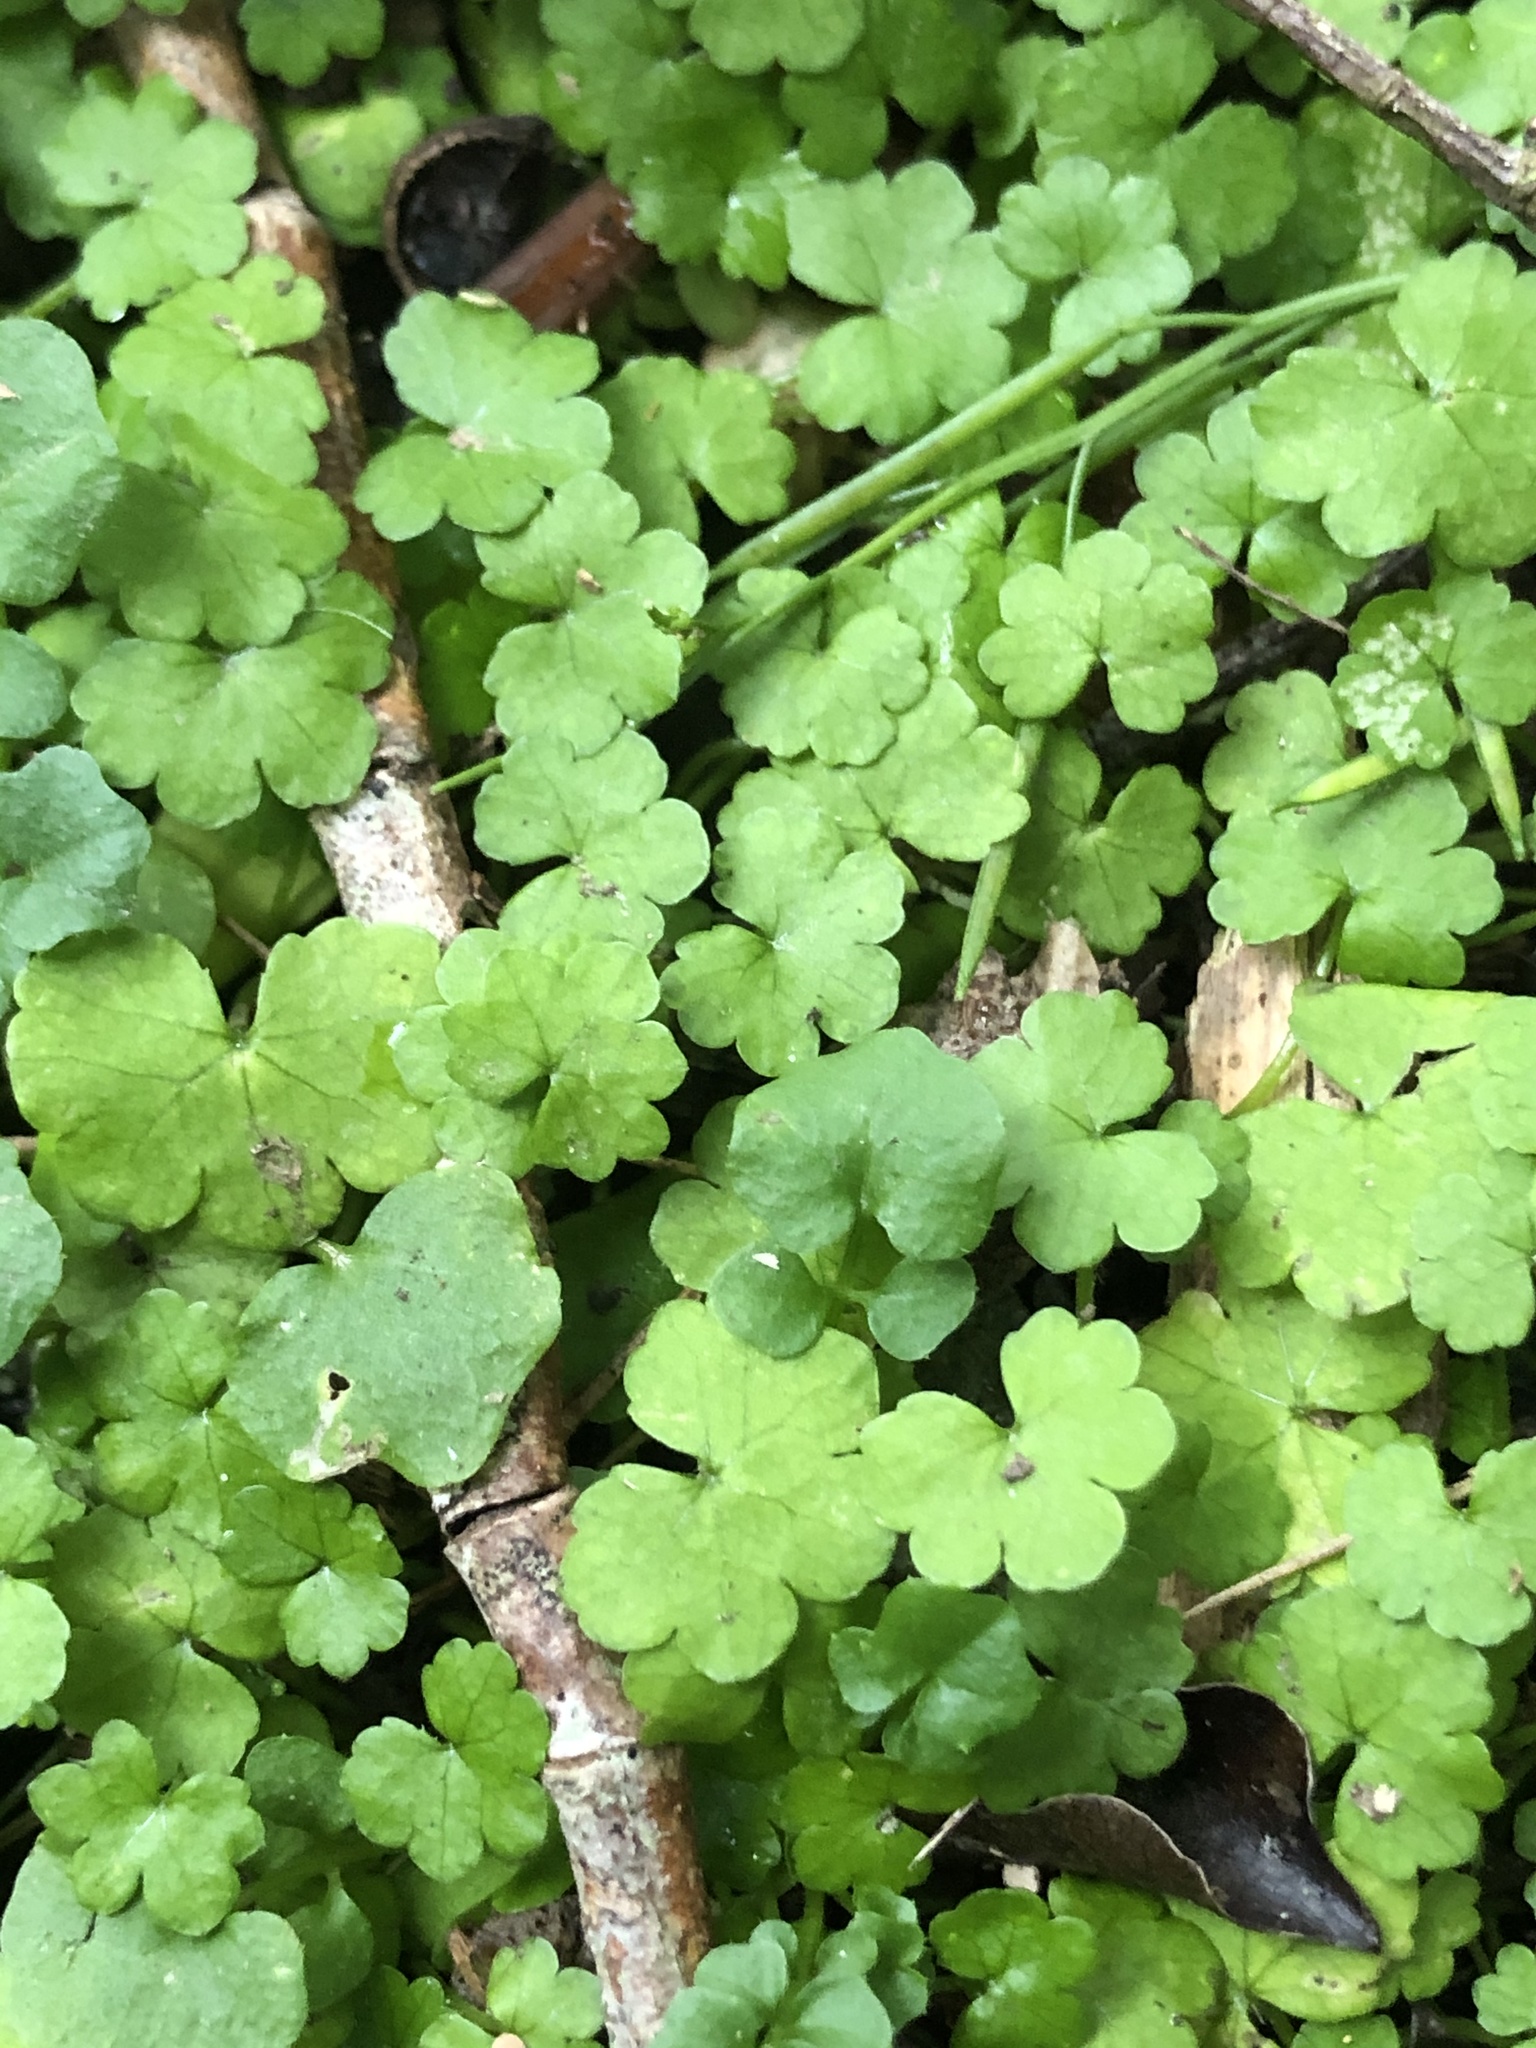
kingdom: Plantae
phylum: Tracheophyta
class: Magnoliopsida
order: Apiales
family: Araliaceae
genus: Hydrocotyle
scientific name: Hydrocotyle heteromeria
